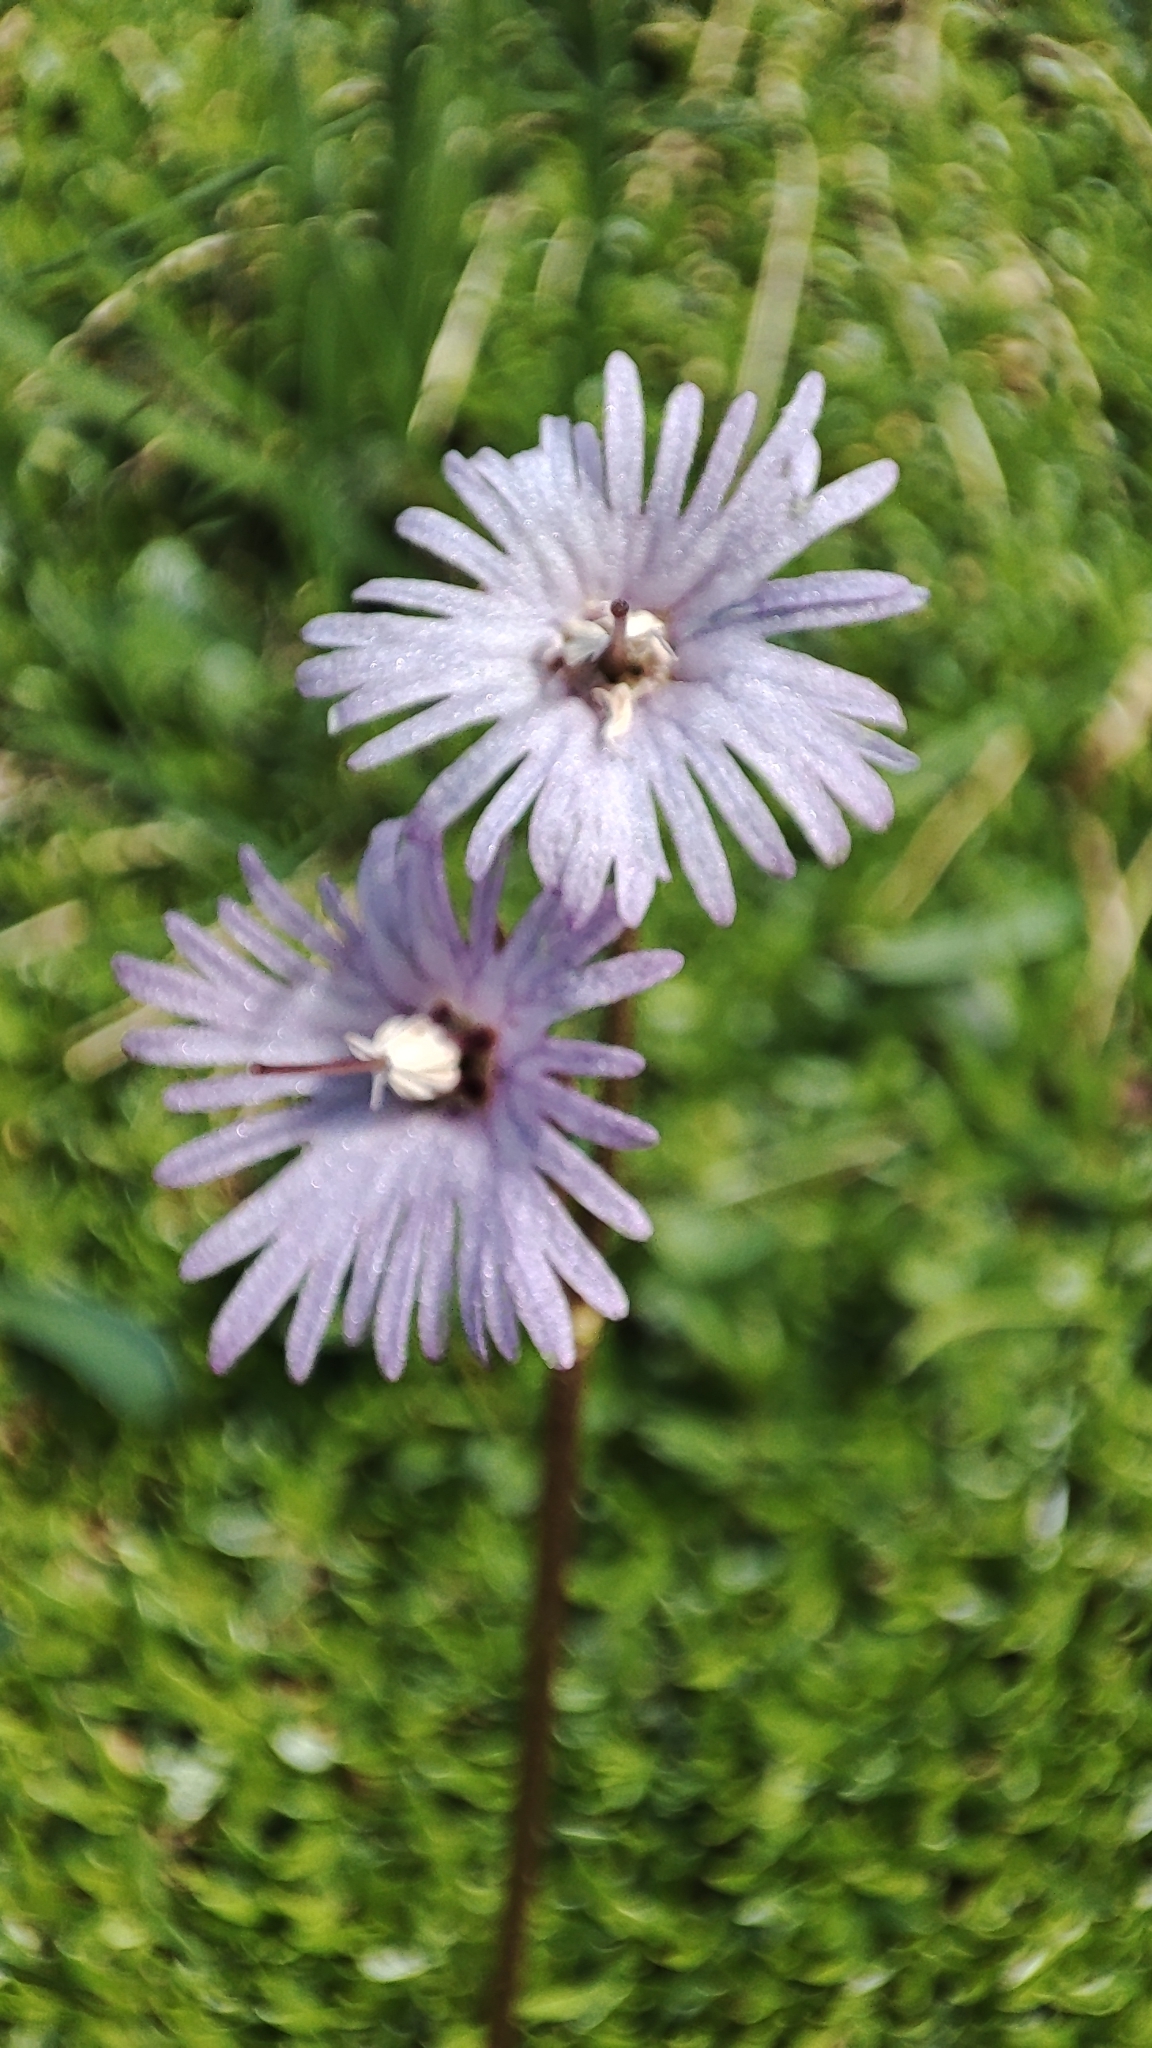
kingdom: Plantae
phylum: Tracheophyta
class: Magnoliopsida
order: Ericales
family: Primulaceae
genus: Soldanella
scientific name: Soldanella alpina
